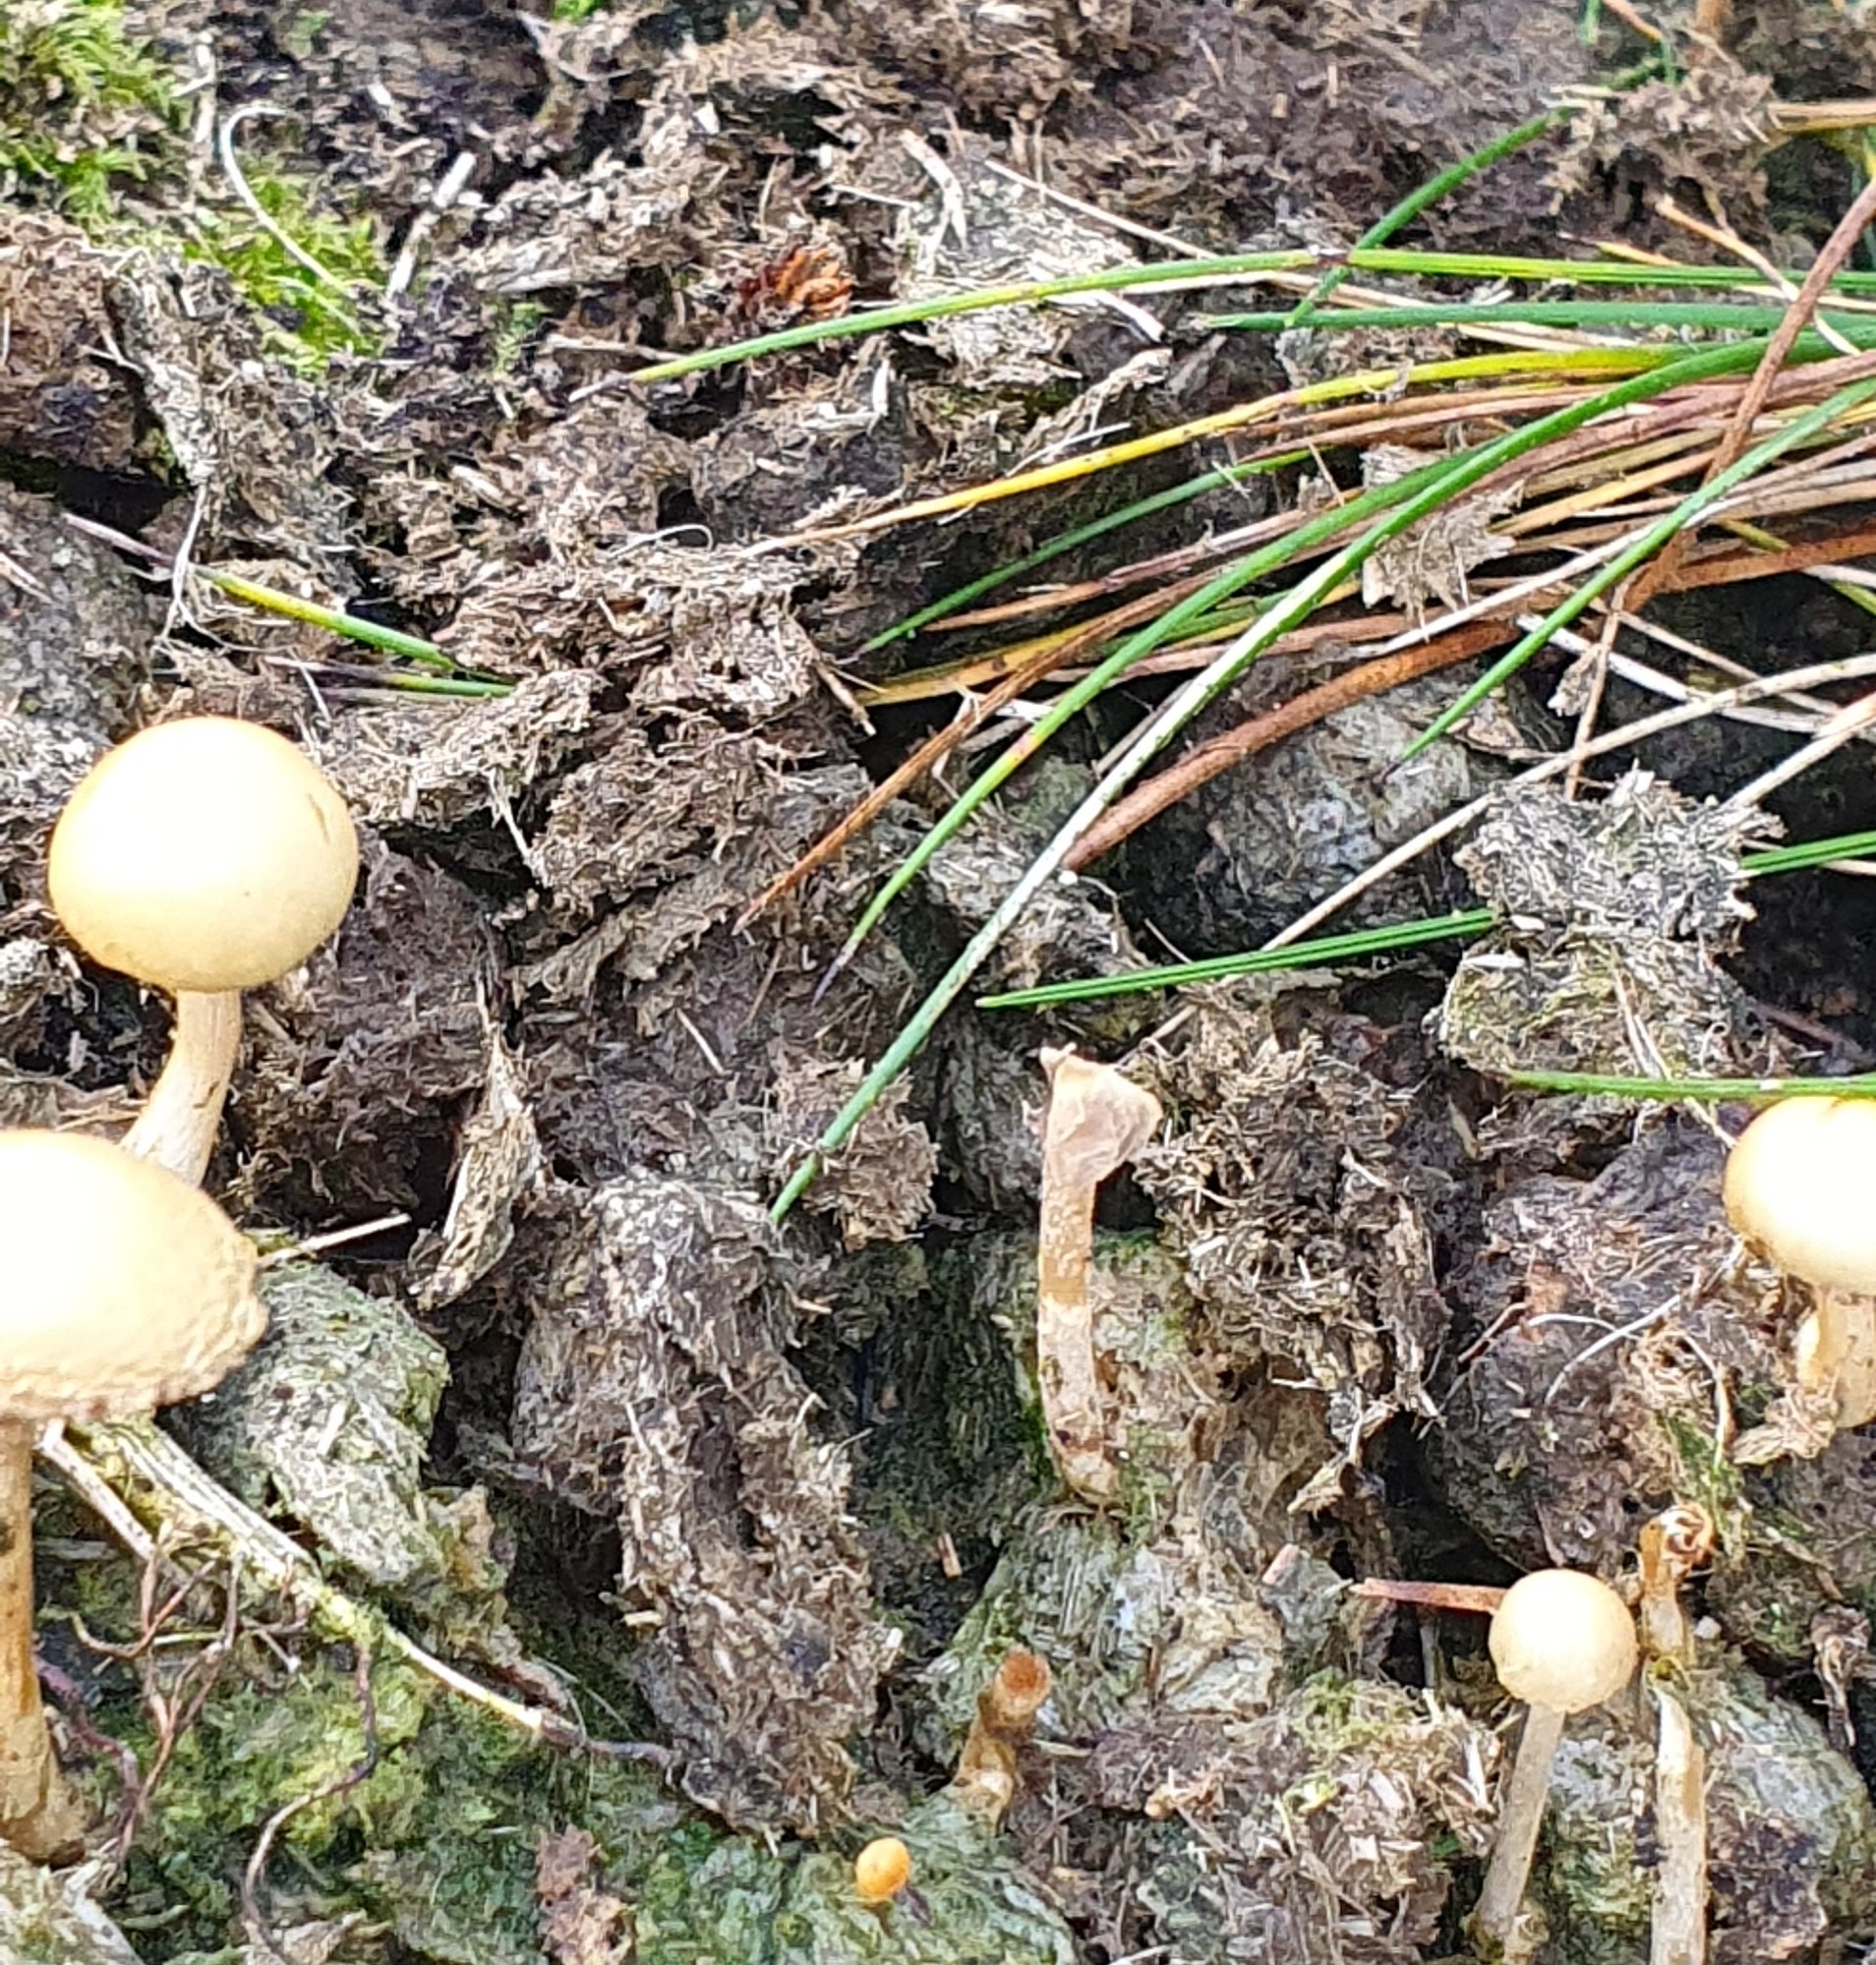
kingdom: Fungi
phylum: Basidiomycota
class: Agaricomycetes
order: Agaricales
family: Strophariaceae
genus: Protostropharia
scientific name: Protostropharia semiglobata
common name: Dung roundhead
